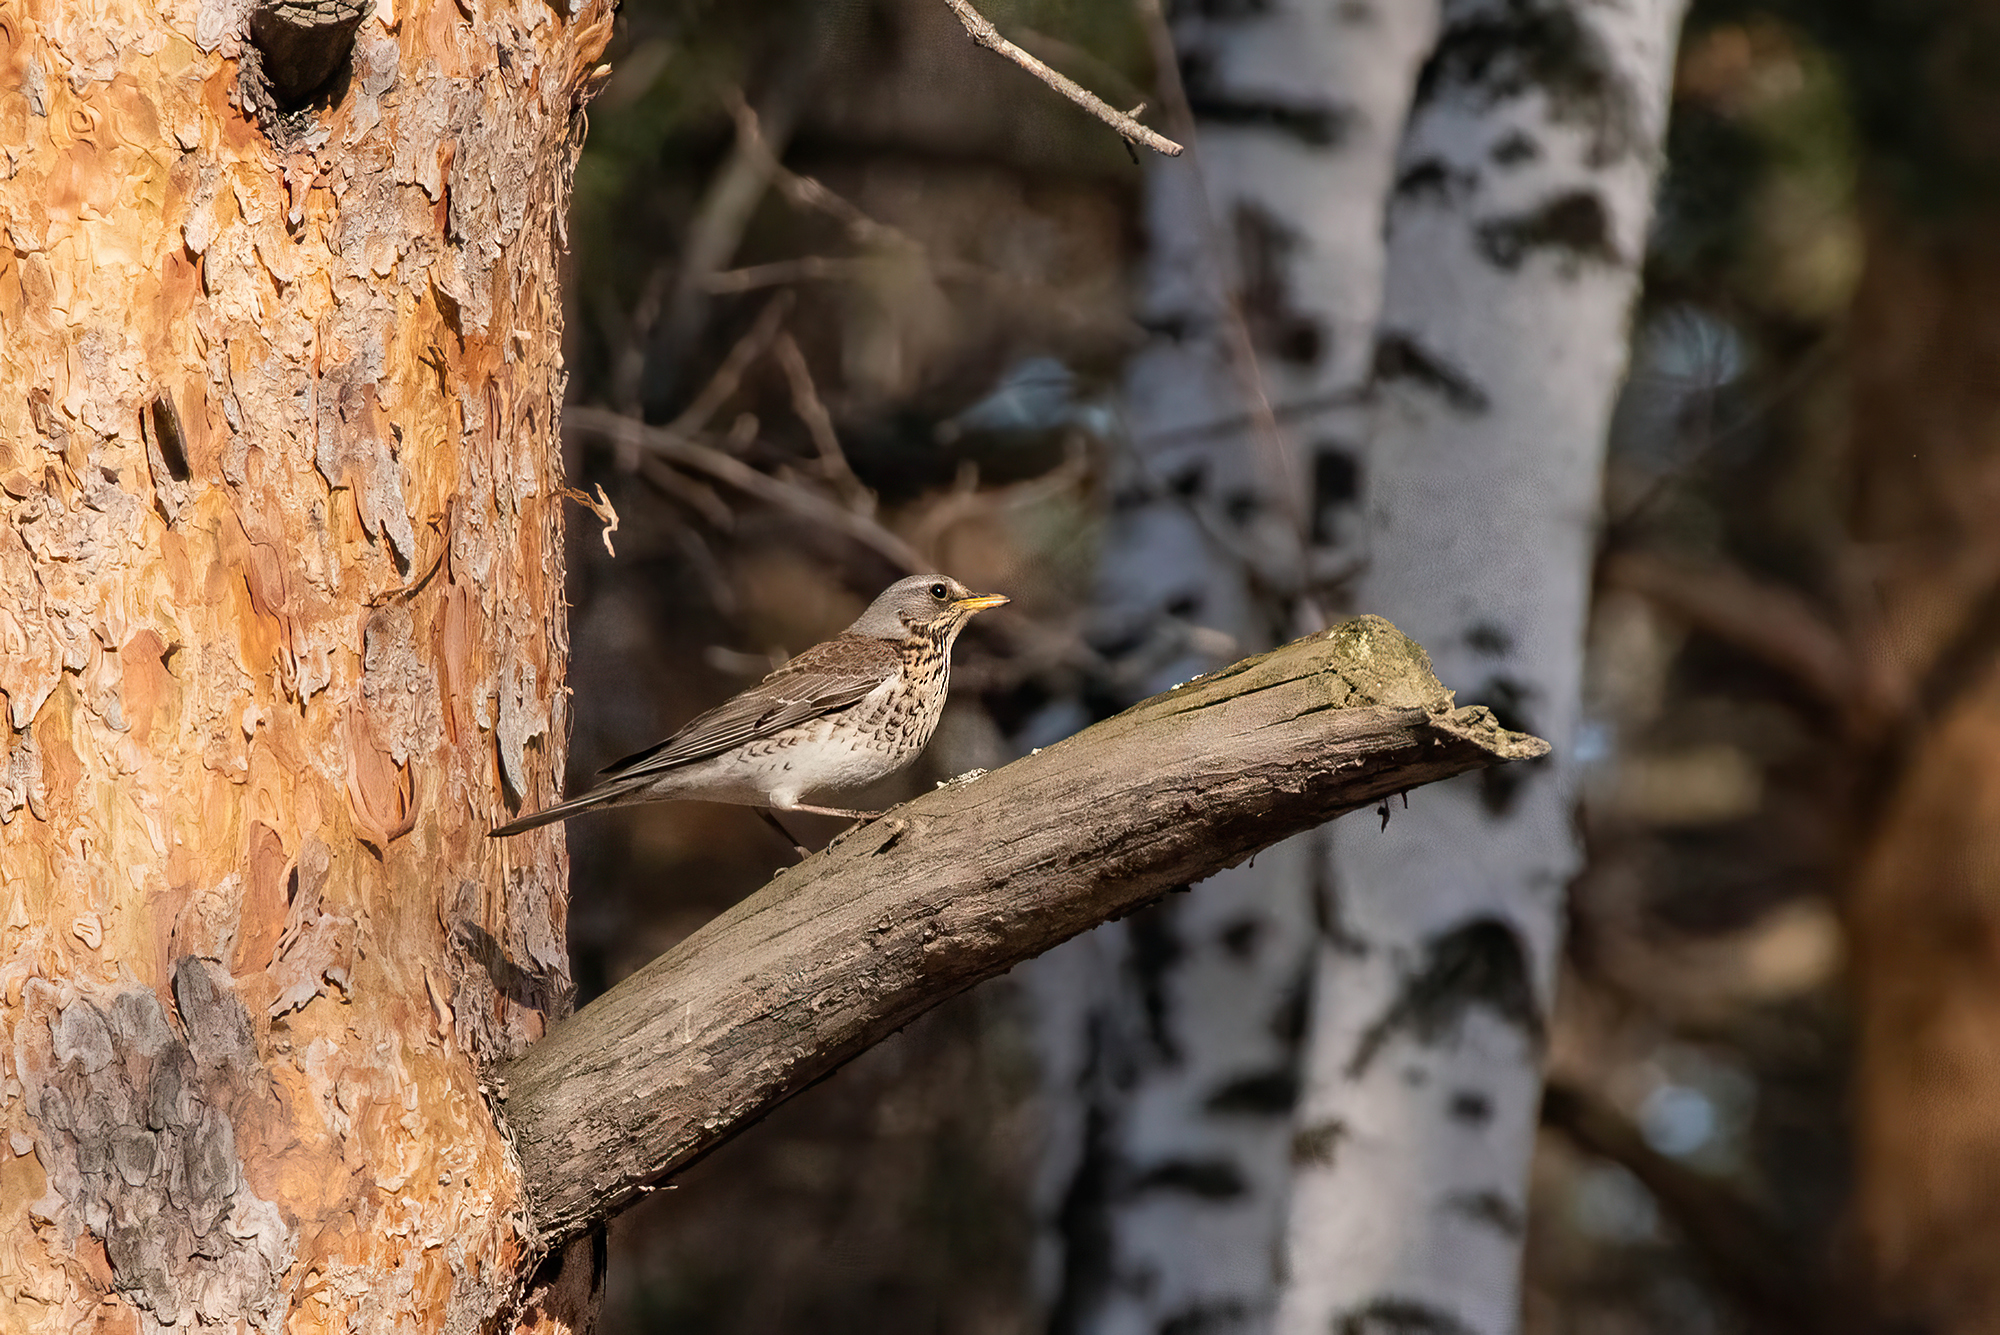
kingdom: Animalia
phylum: Chordata
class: Aves
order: Passeriformes
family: Turdidae
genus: Turdus
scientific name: Turdus pilaris
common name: Fieldfare
